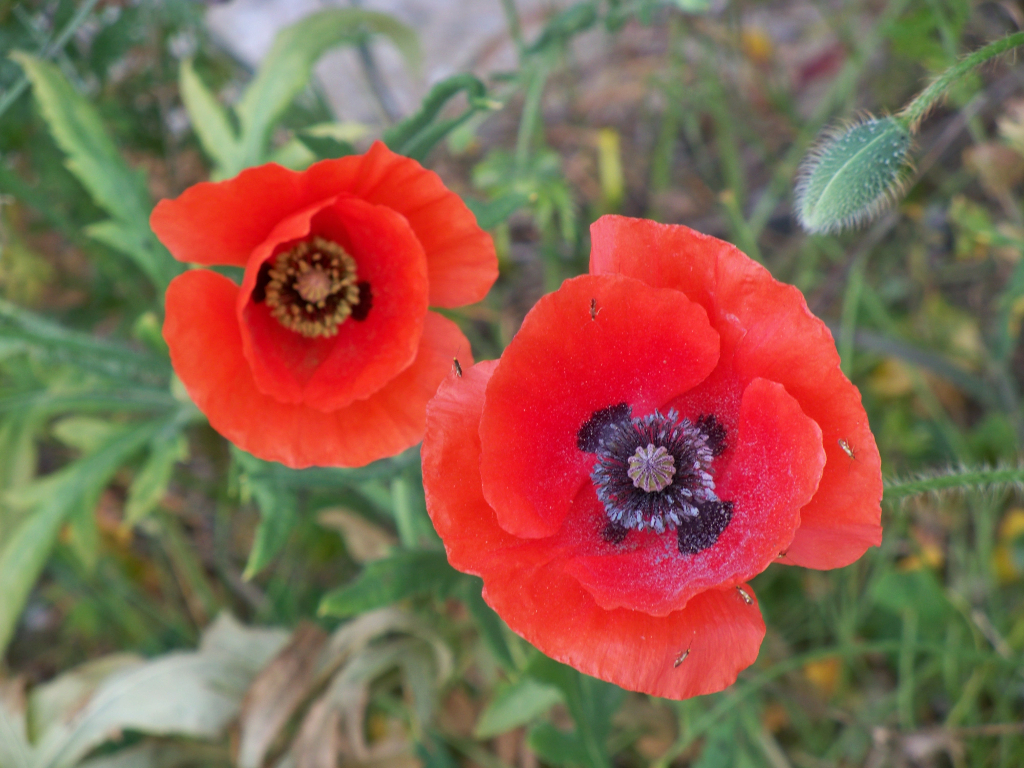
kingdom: Plantae
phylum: Tracheophyta
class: Magnoliopsida
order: Ranunculales
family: Papaveraceae
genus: Papaver
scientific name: Papaver rhoeas
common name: Corn poppy
